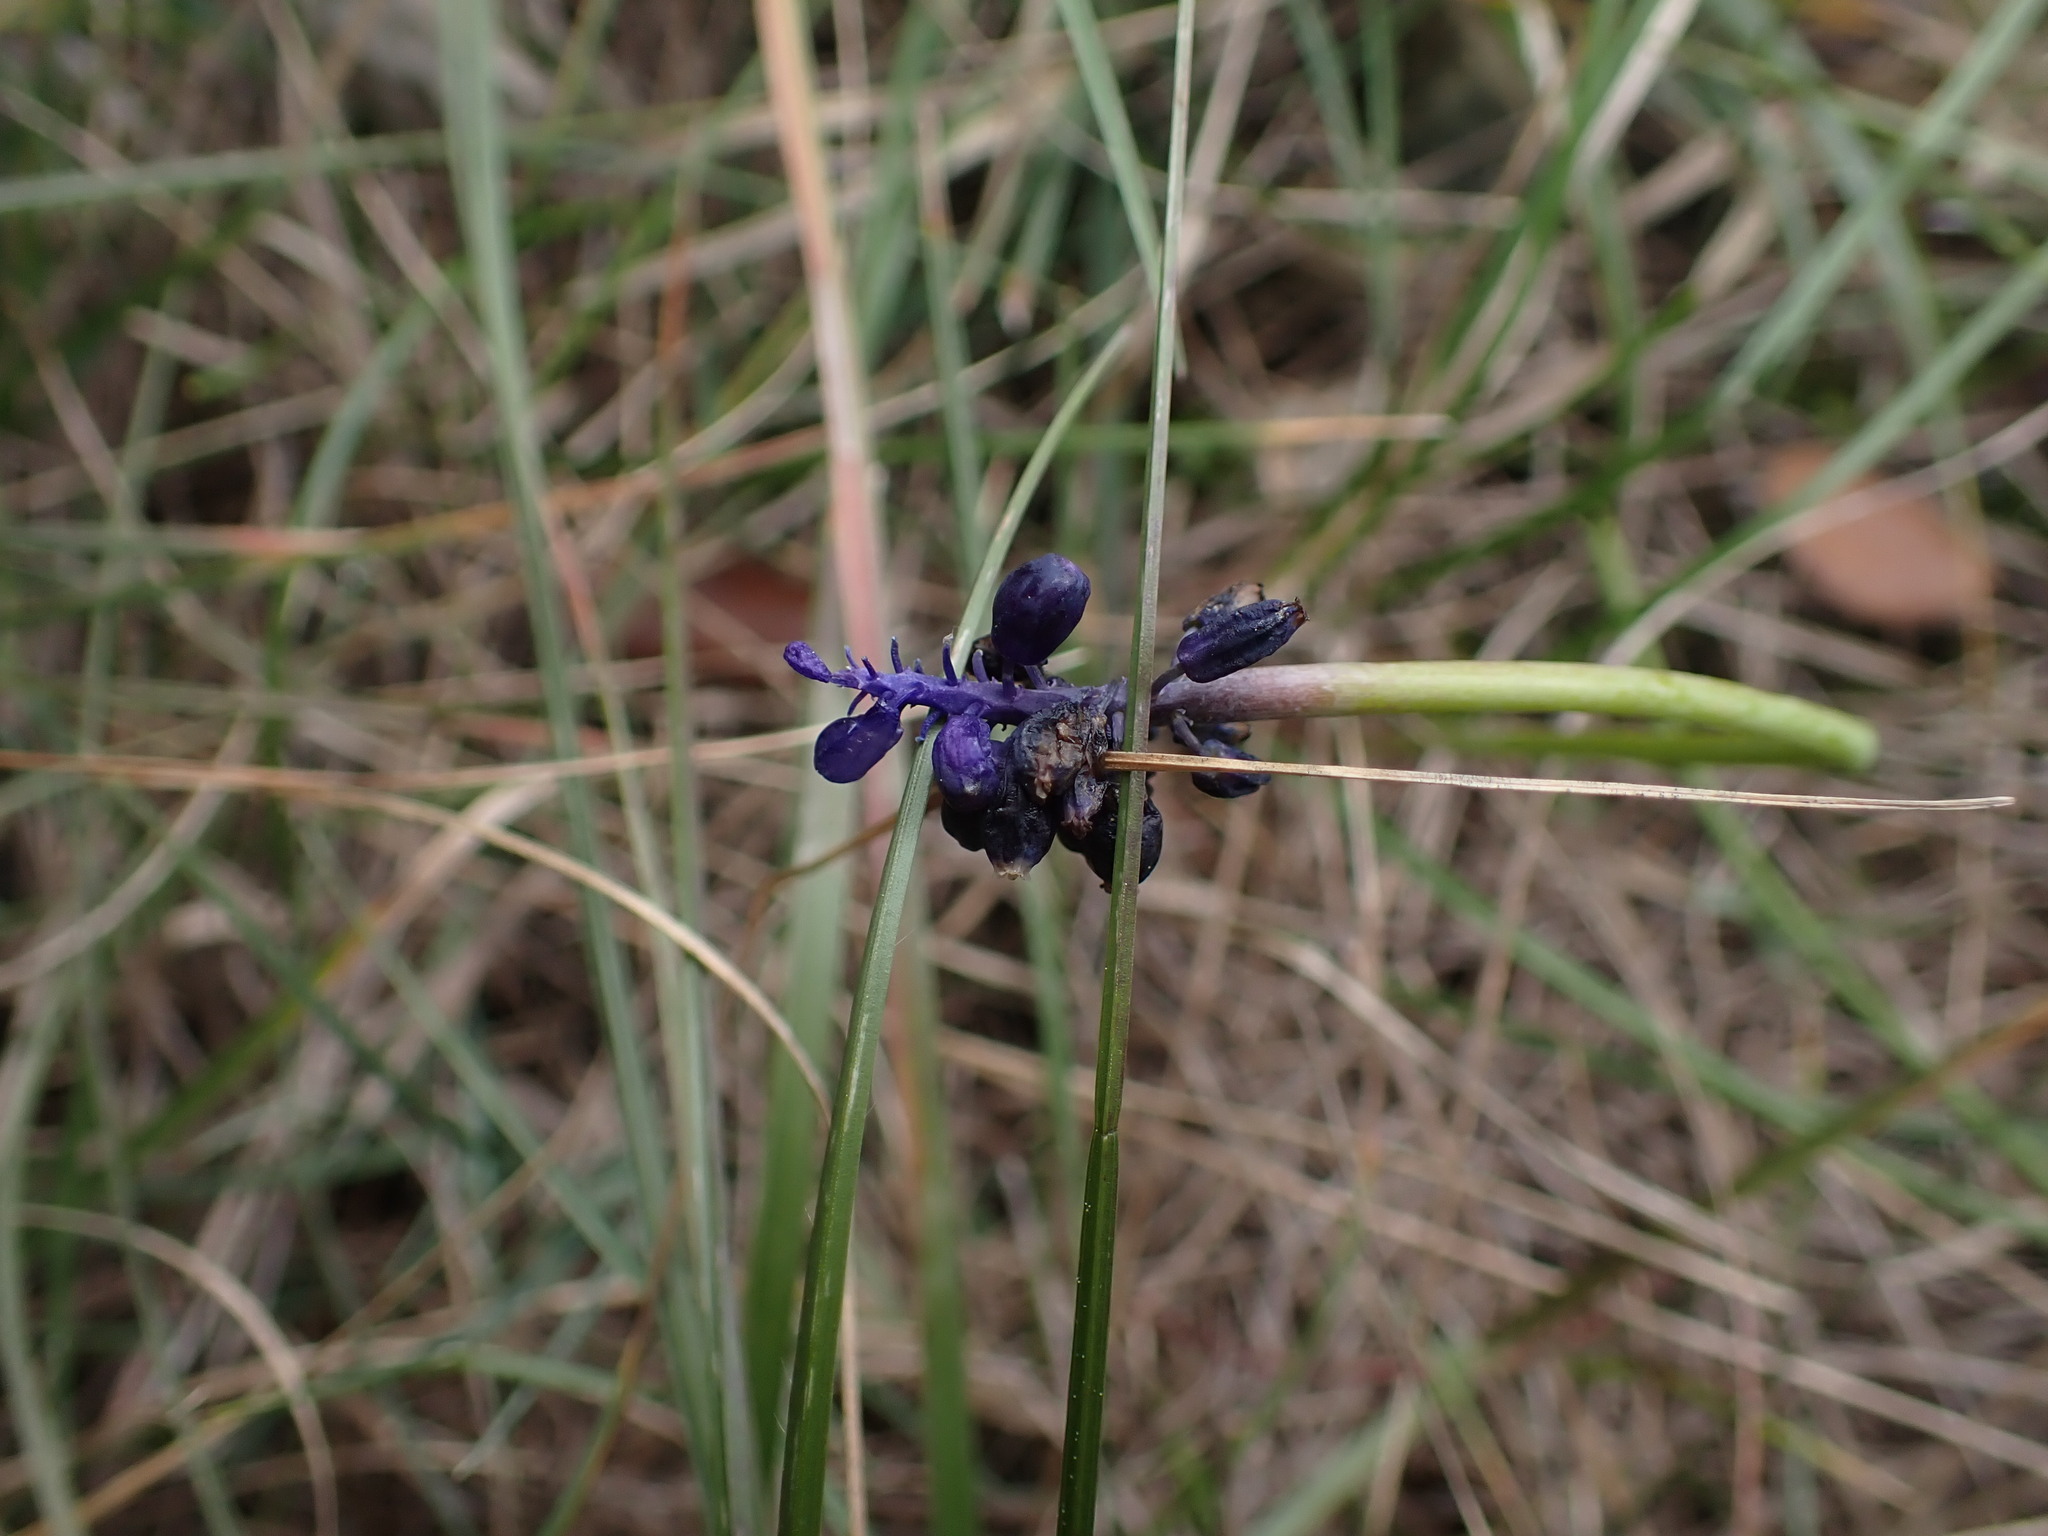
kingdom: Plantae
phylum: Tracheophyta
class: Liliopsida
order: Asparagales
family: Asparagaceae
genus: Muscari
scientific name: Muscari neglectum
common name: Grape-hyacinth
